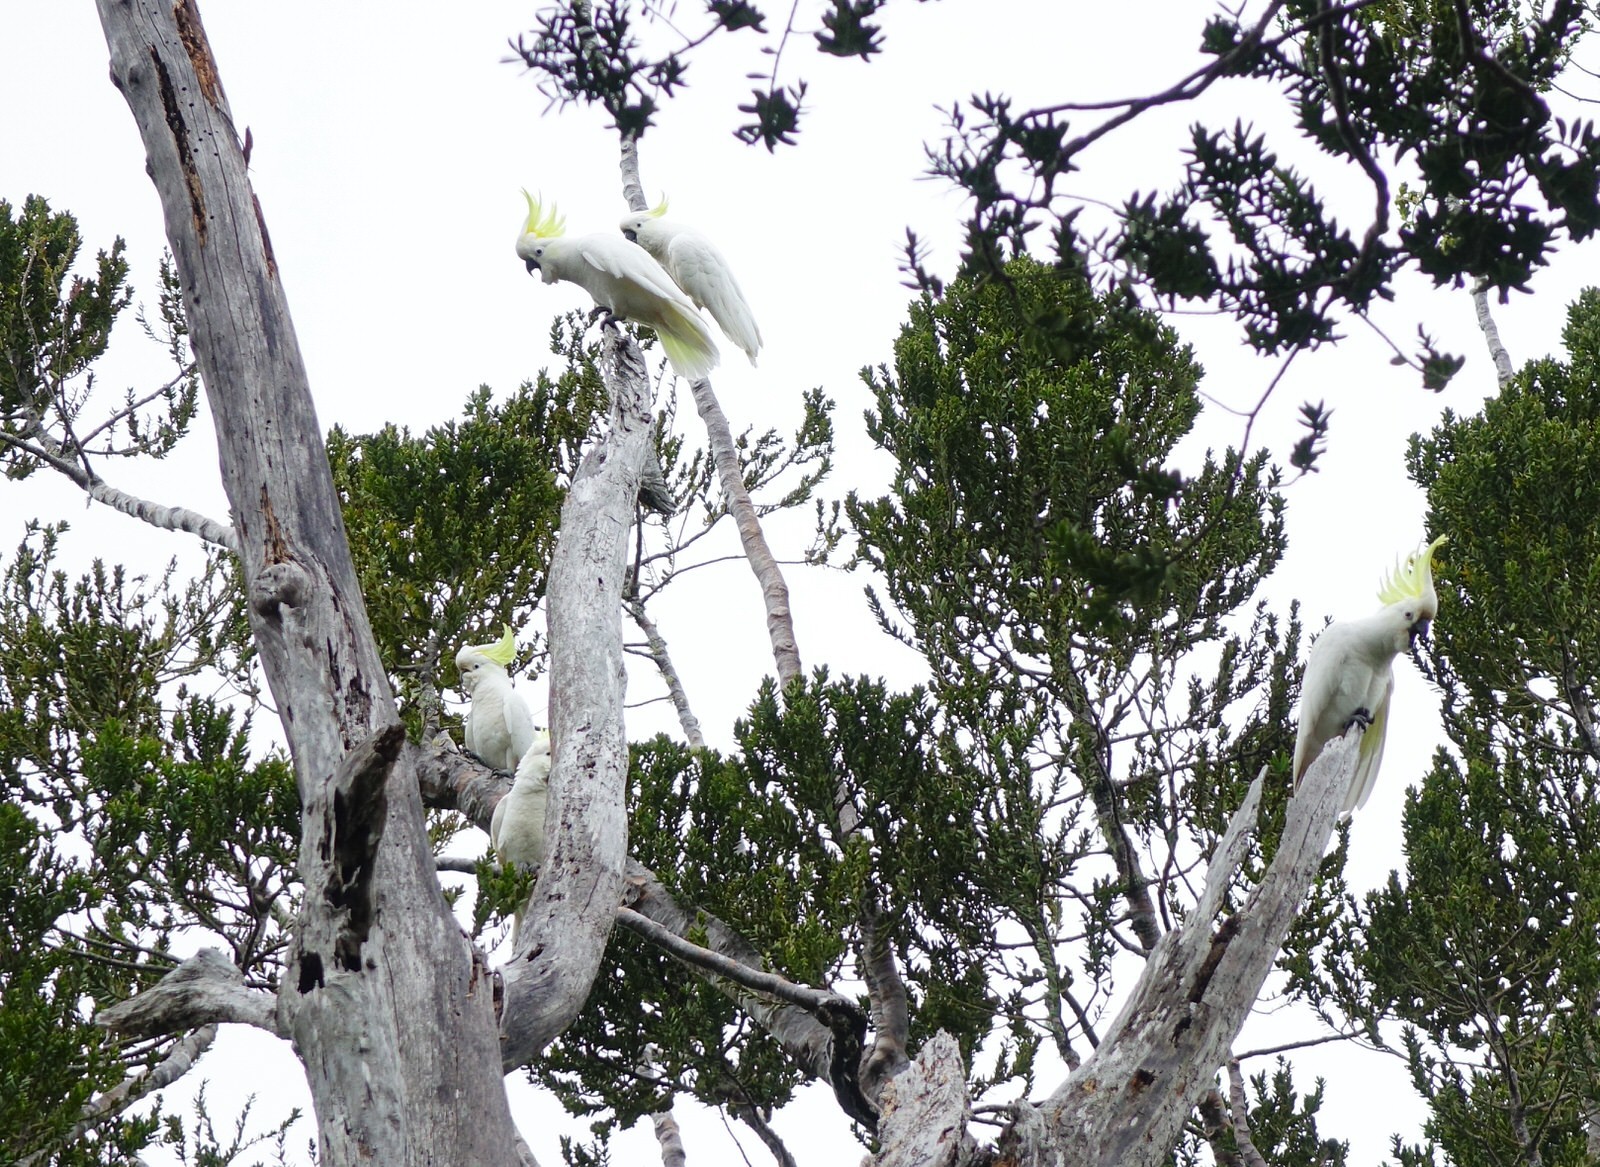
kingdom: Animalia
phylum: Chordata
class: Aves
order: Psittaciformes
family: Psittacidae
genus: Cacatua
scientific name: Cacatua galerita
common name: Sulphur-crested cockatoo
